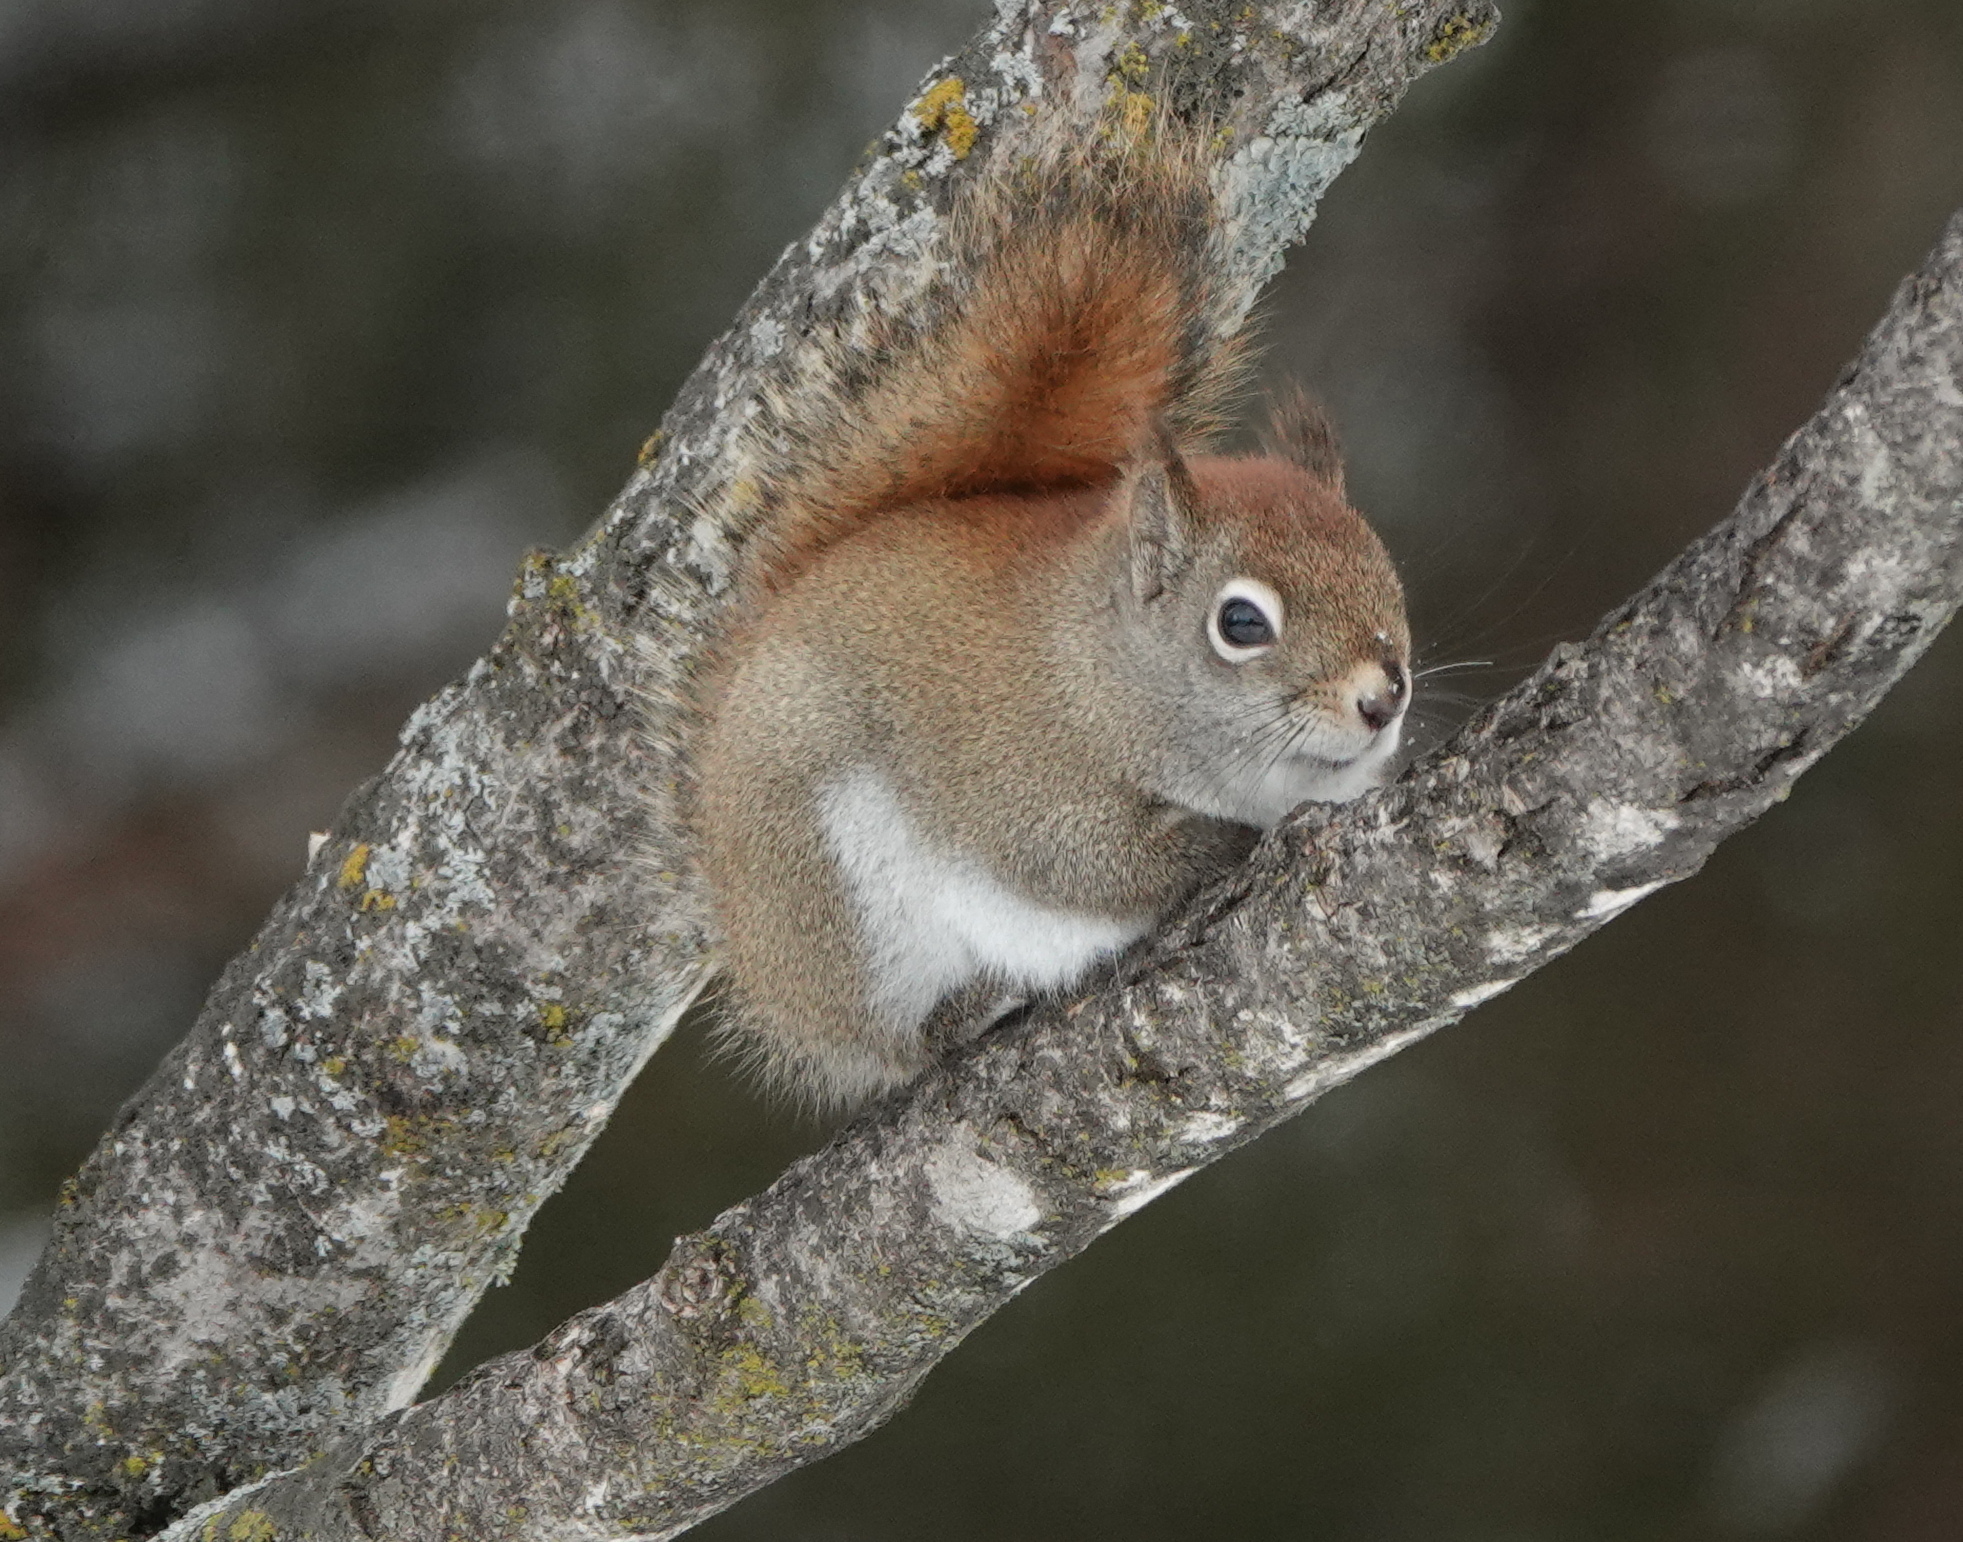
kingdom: Animalia
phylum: Chordata
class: Mammalia
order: Rodentia
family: Sciuridae
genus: Tamiasciurus
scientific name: Tamiasciurus hudsonicus
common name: Red squirrel
